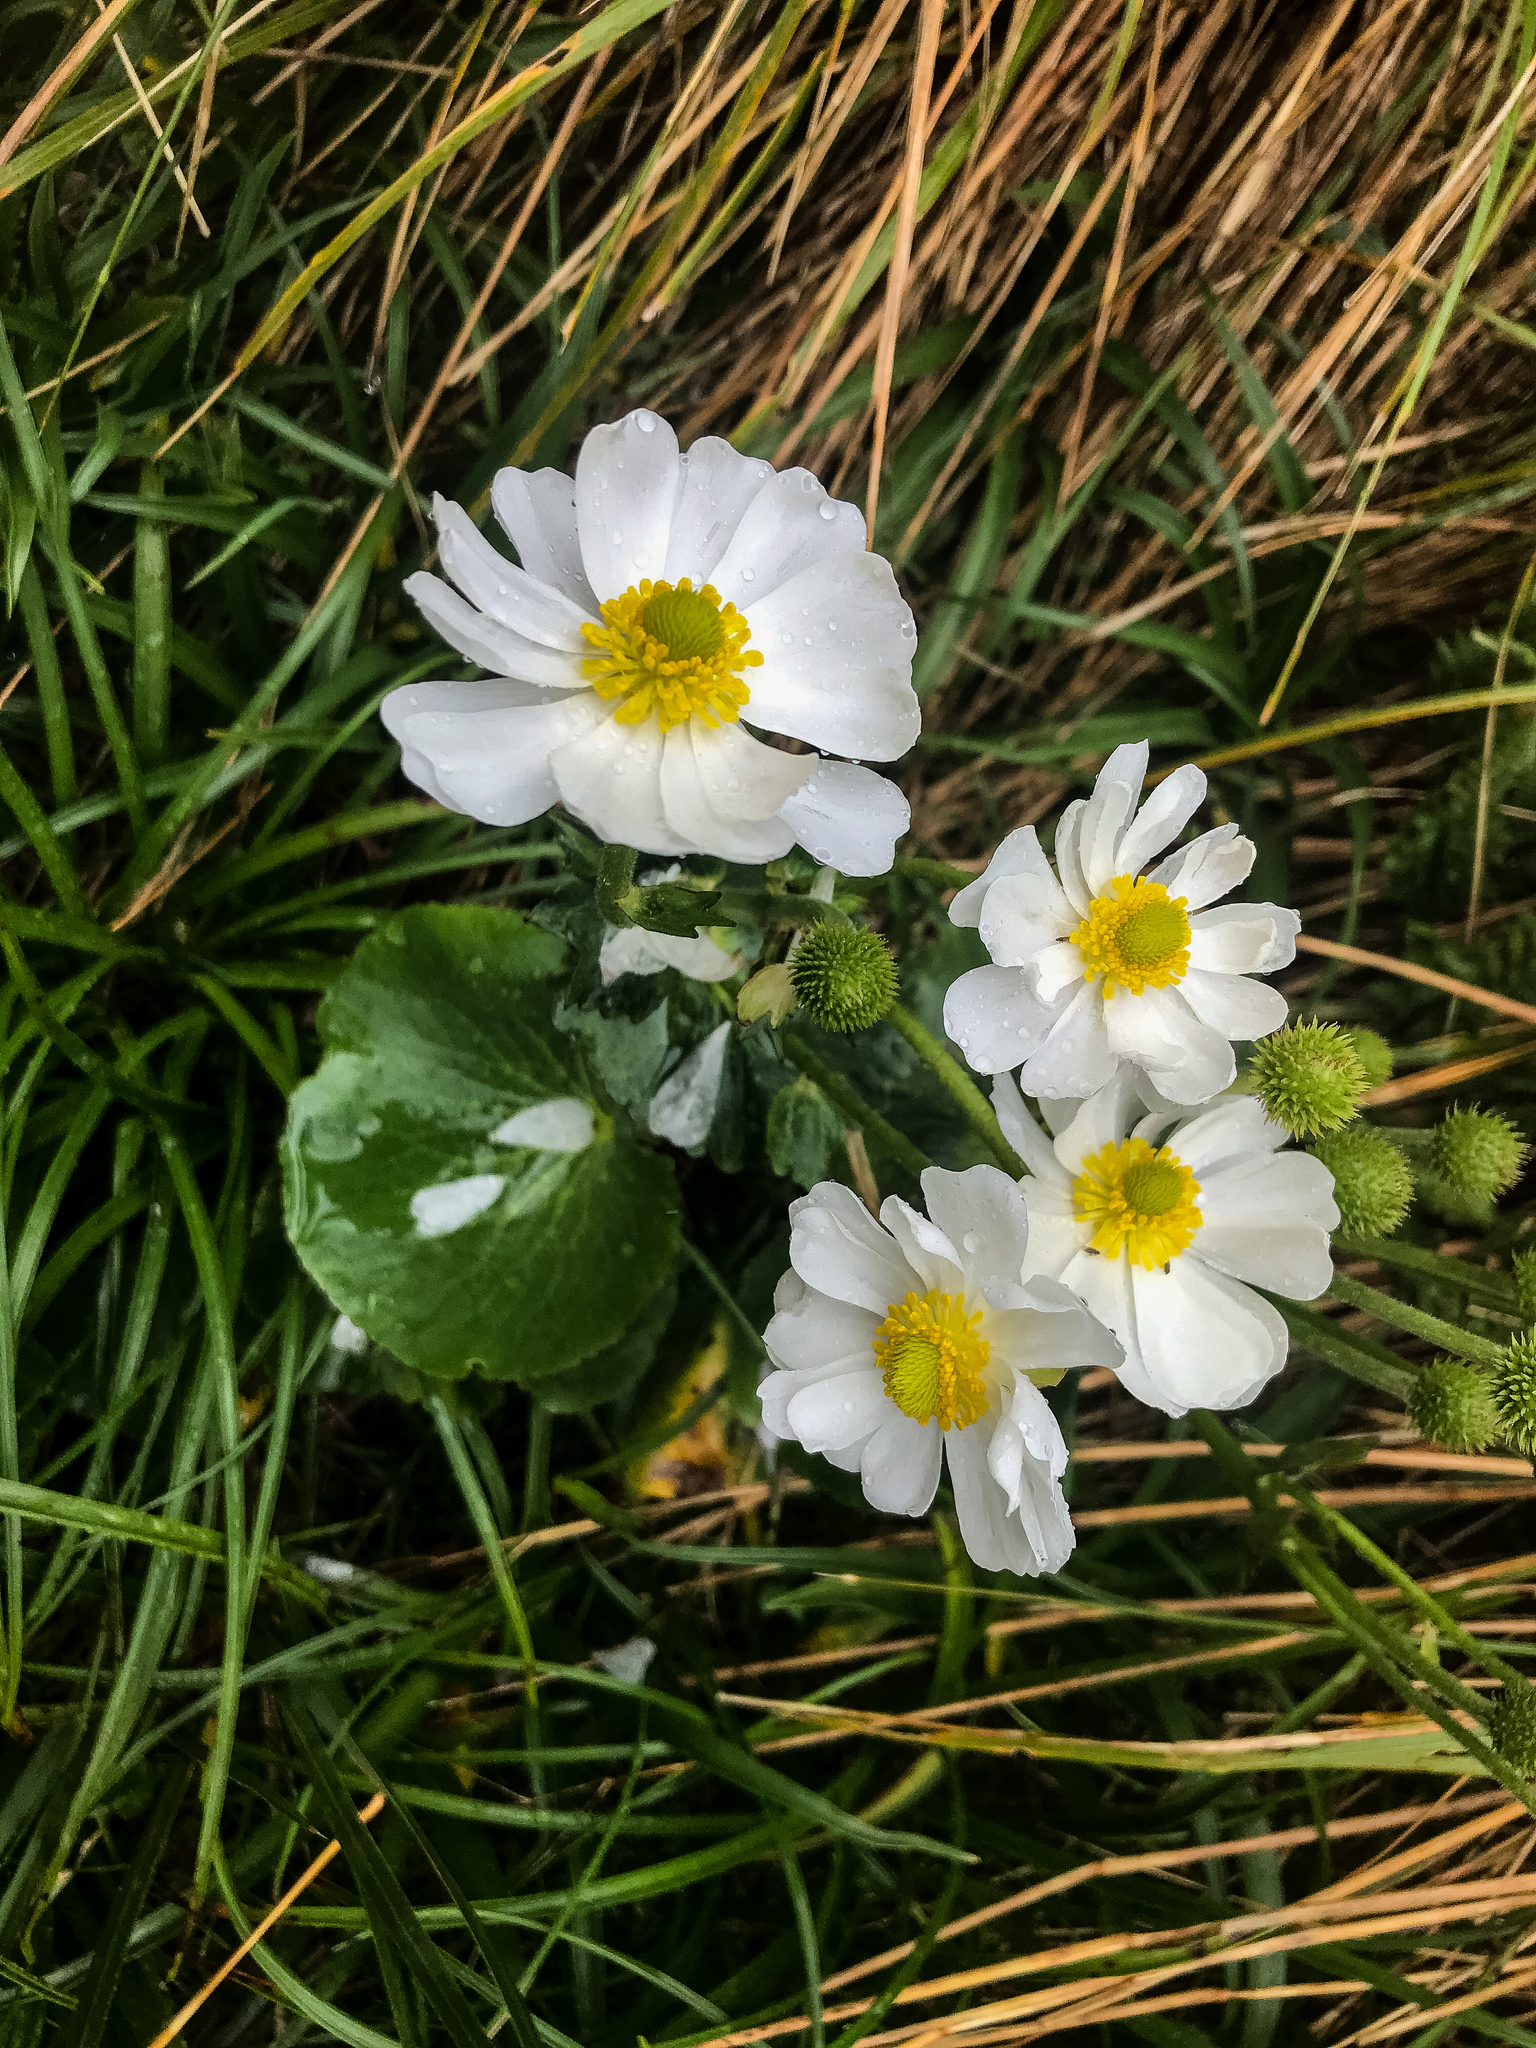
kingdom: Plantae
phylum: Tracheophyta
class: Magnoliopsida
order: Ranunculales
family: Ranunculaceae
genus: Ranunculus
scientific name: Ranunculus lyallii
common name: Mountain-lily
